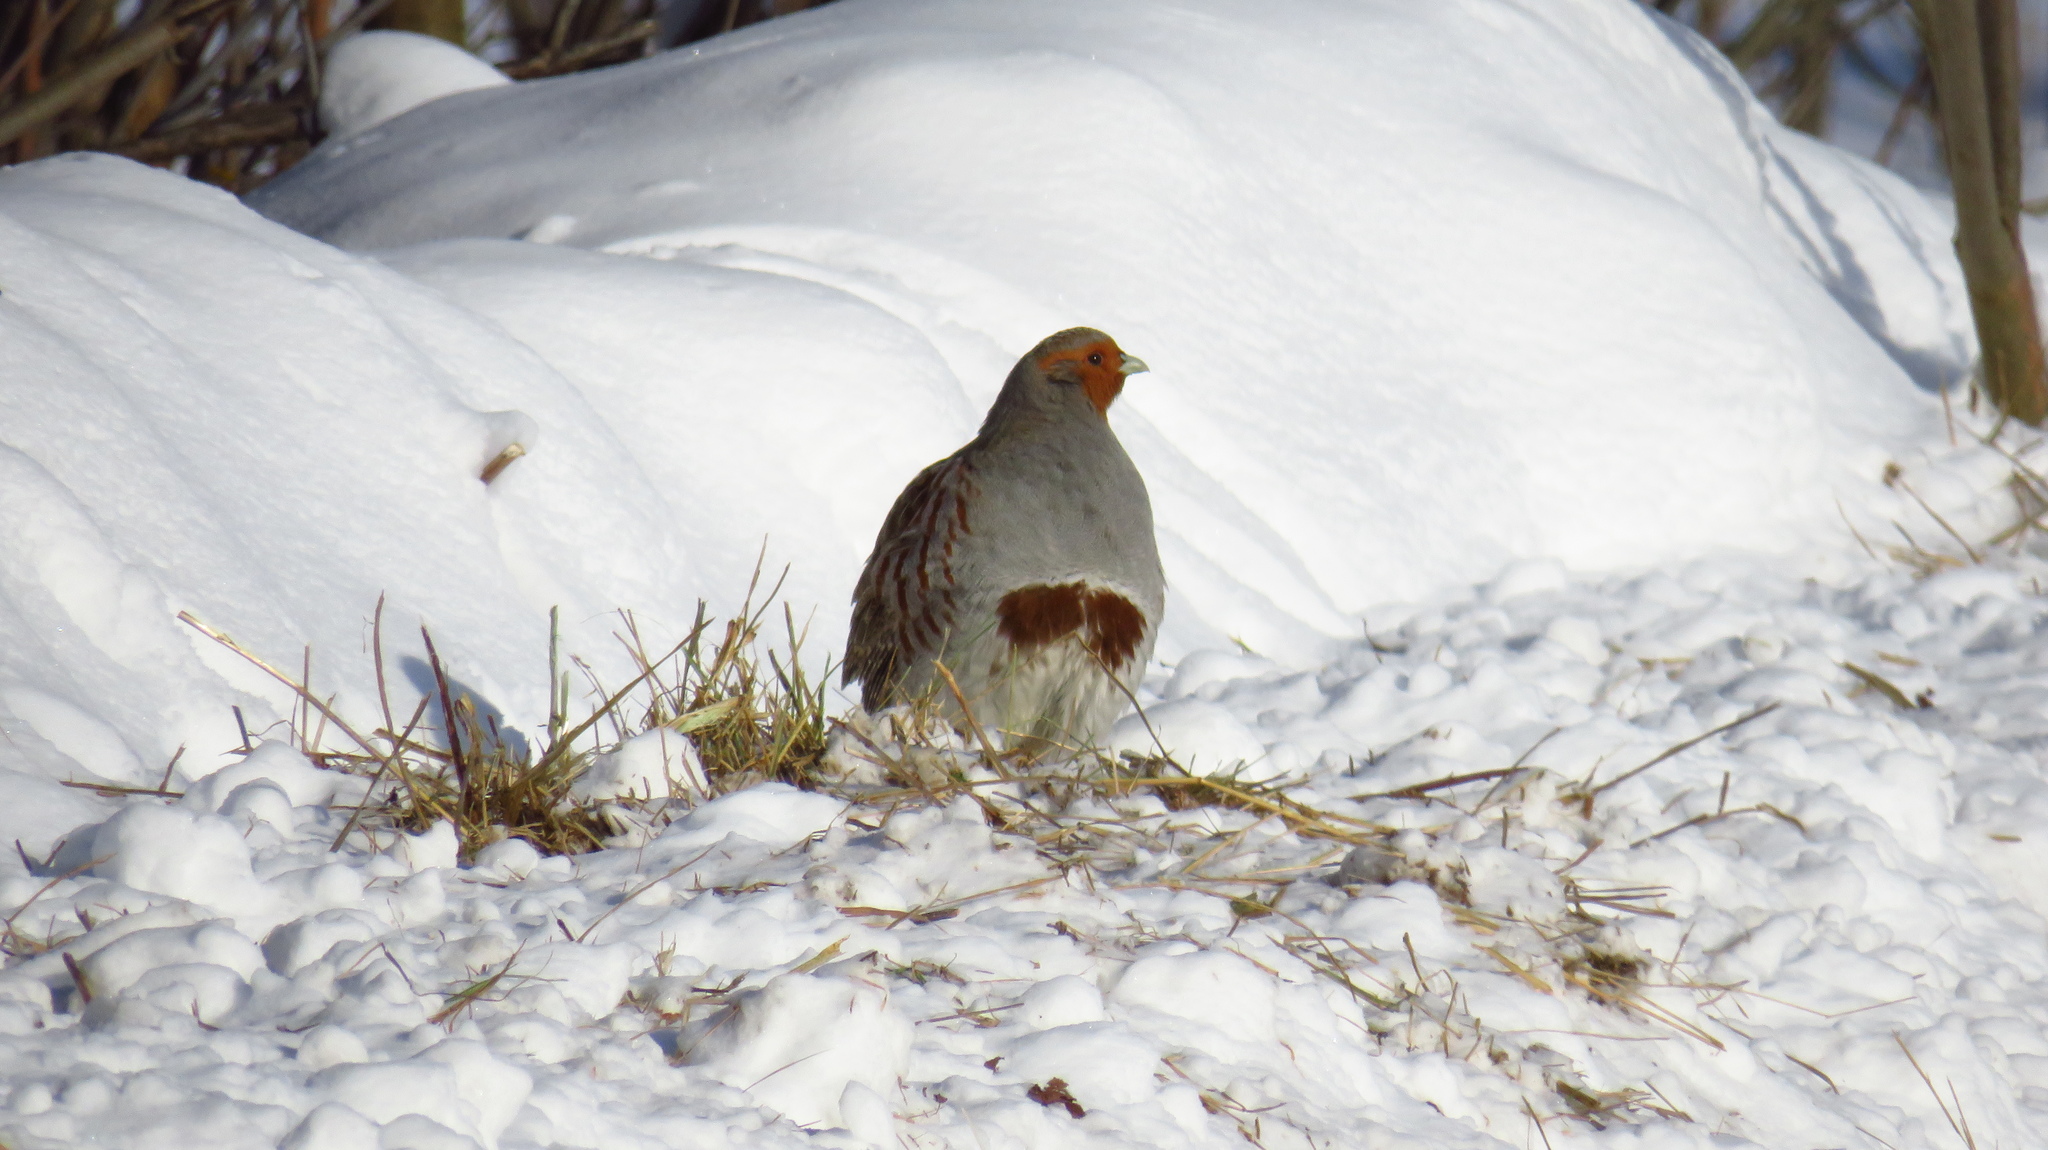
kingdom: Animalia
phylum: Chordata
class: Aves
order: Galliformes
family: Phasianidae
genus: Perdix
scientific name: Perdix perdix
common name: Grey partridge
